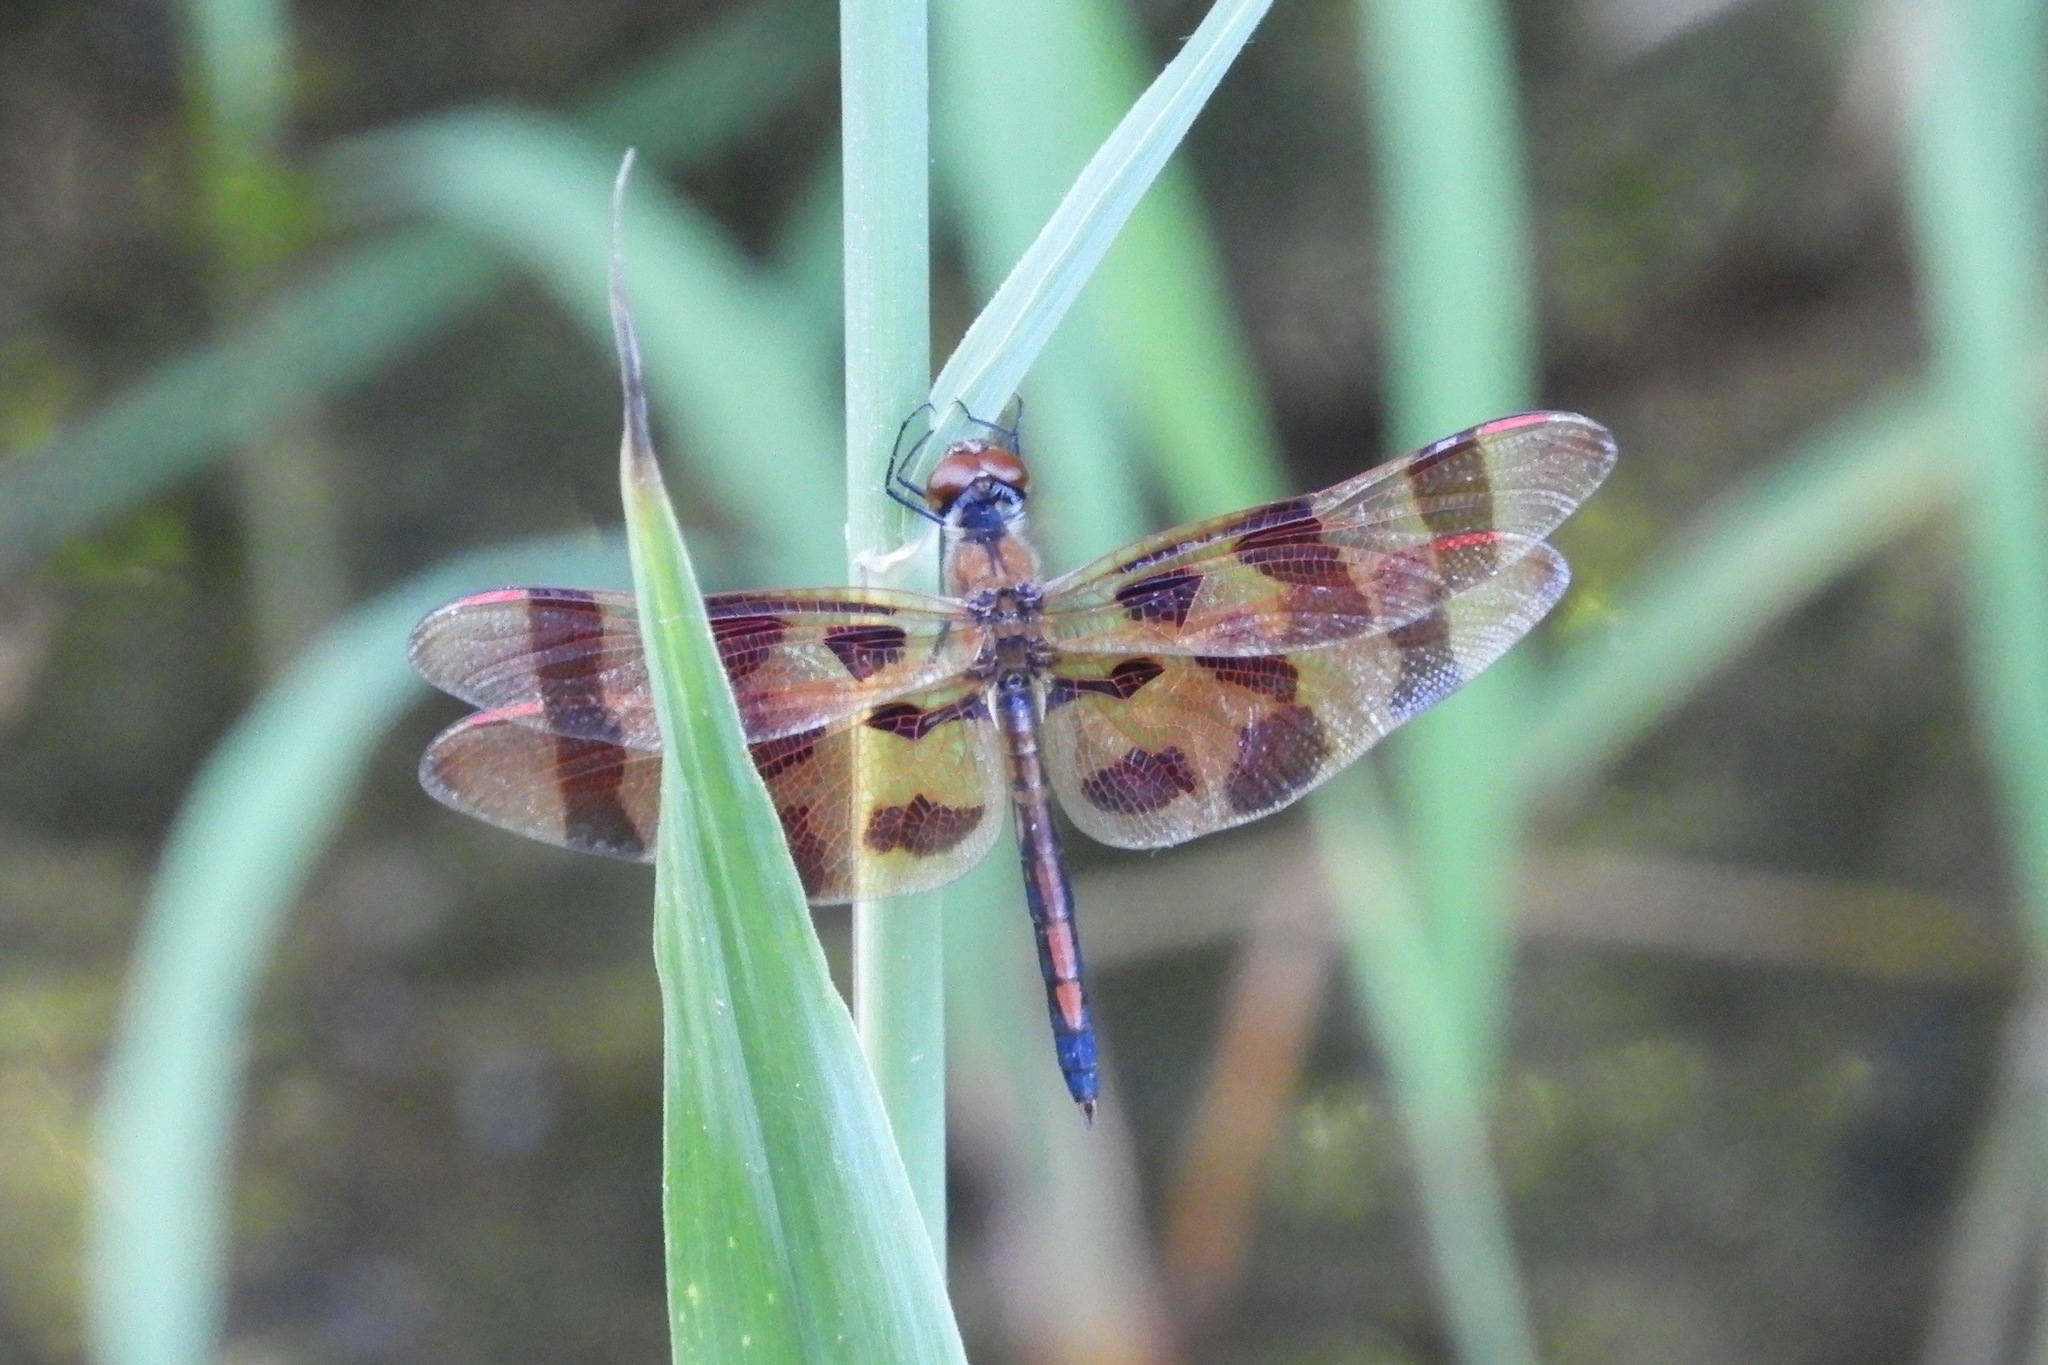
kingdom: Animalia
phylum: Arthropoda
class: Insecta
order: Odonata
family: Libellulidae
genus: Celithemis
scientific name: Celithemis eponina
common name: Halloween pennant
